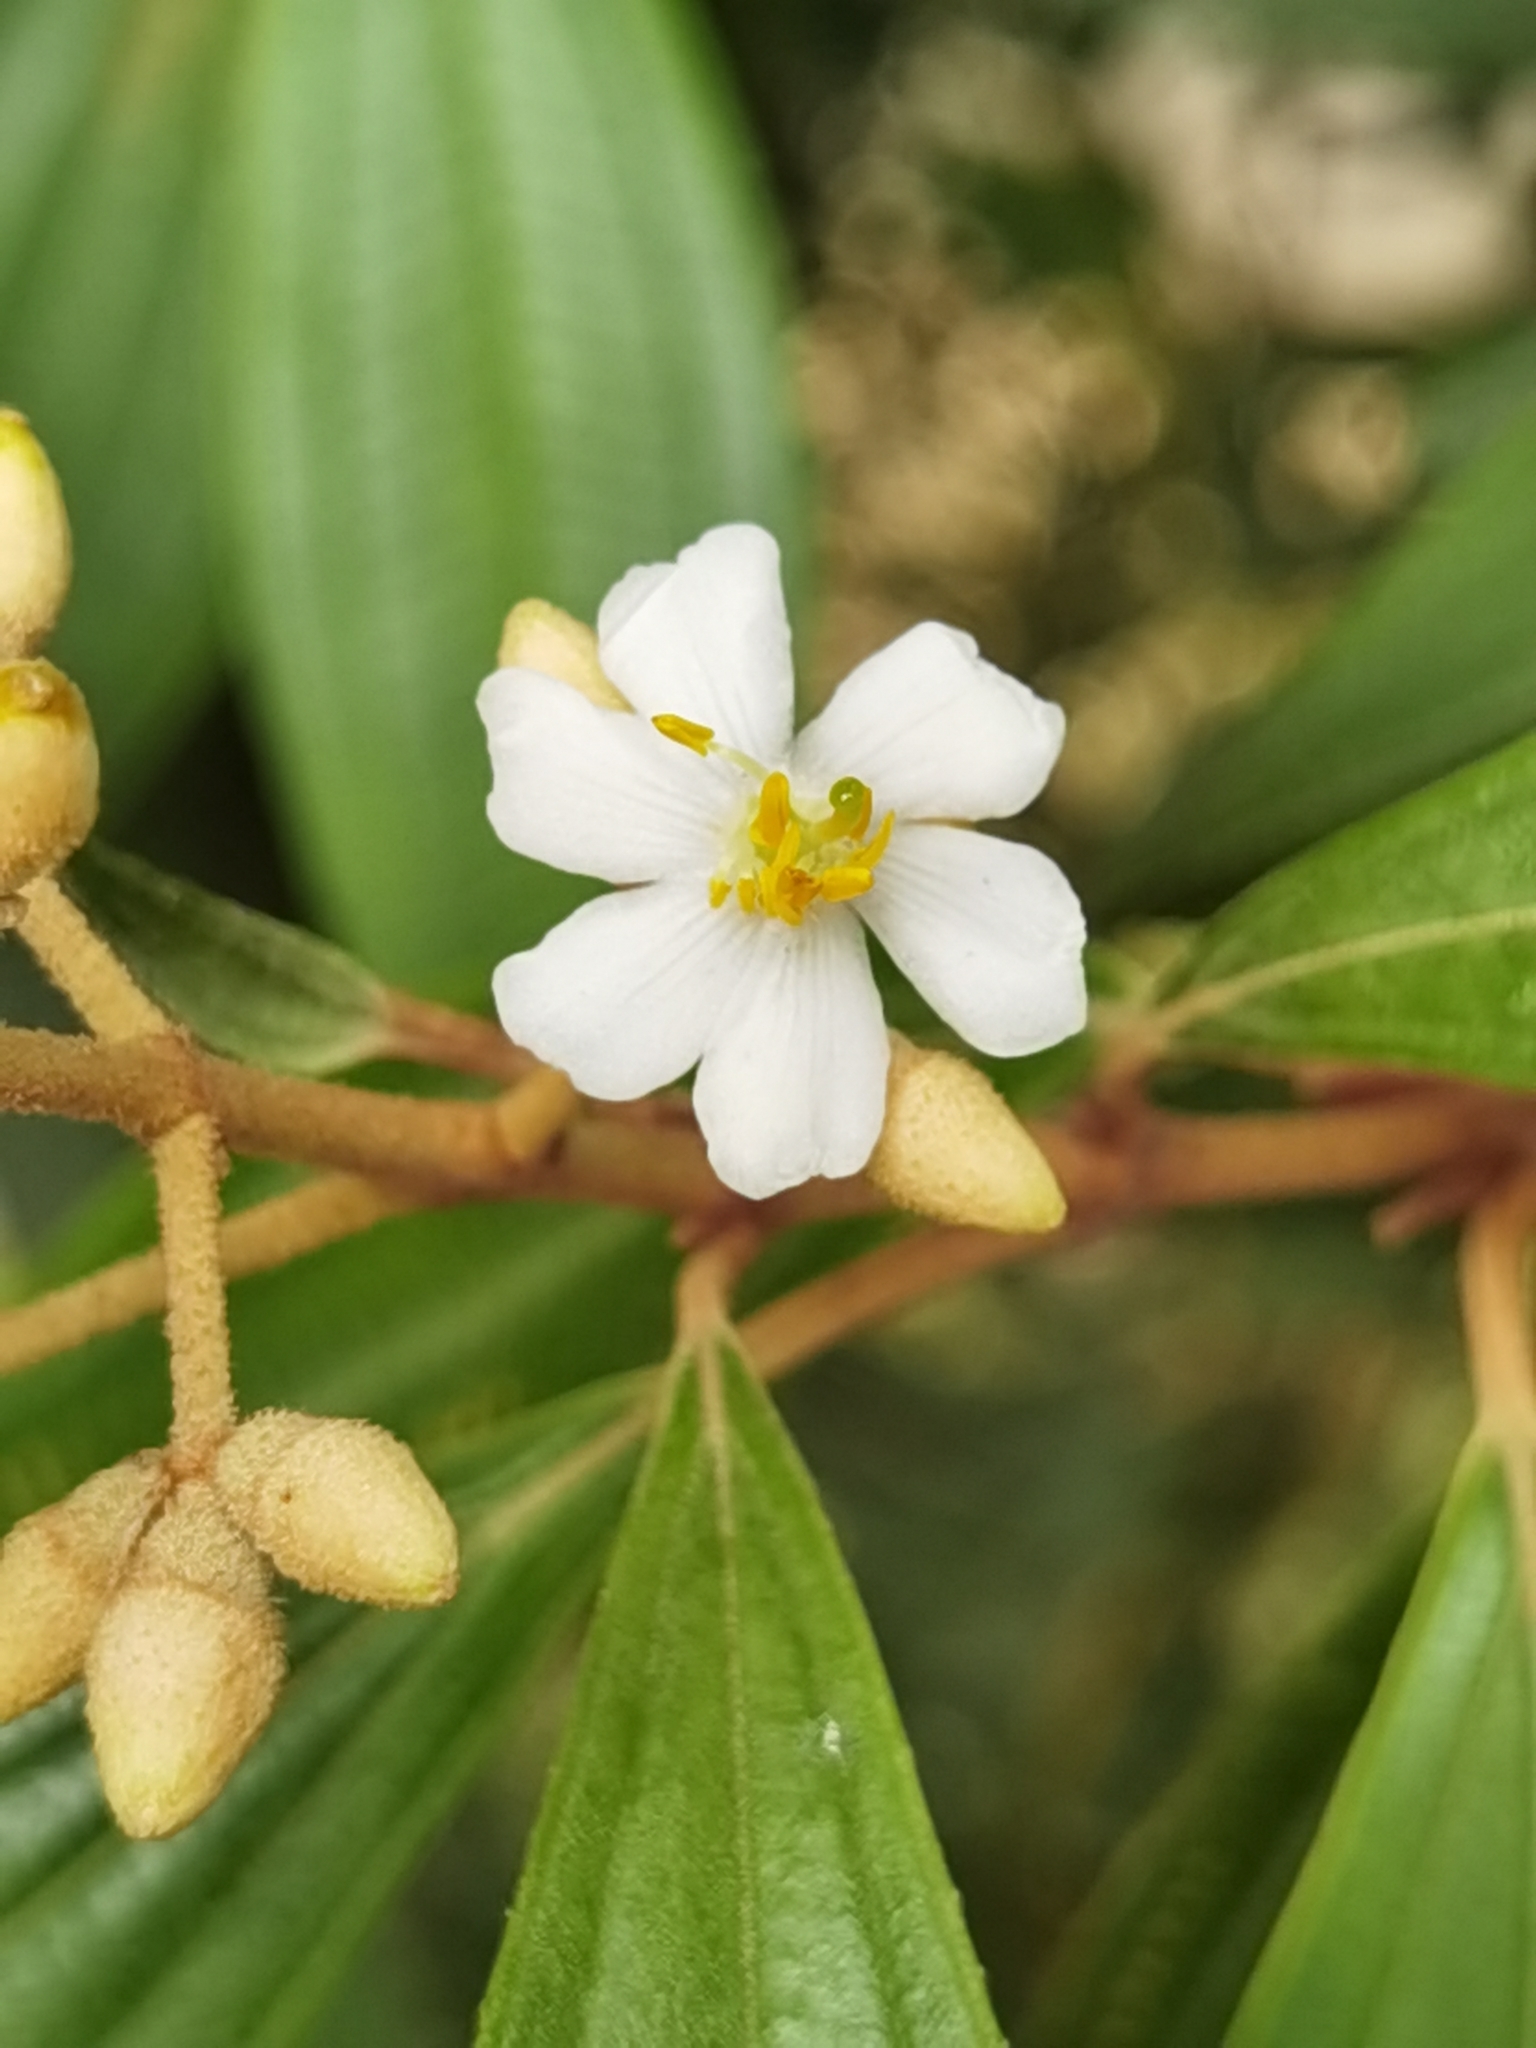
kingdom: Plantae
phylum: Tracheophyta
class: Magnoliopsida
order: Myrtales
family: Melastomataceae
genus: Miconia
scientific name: Miconia xalapensis
